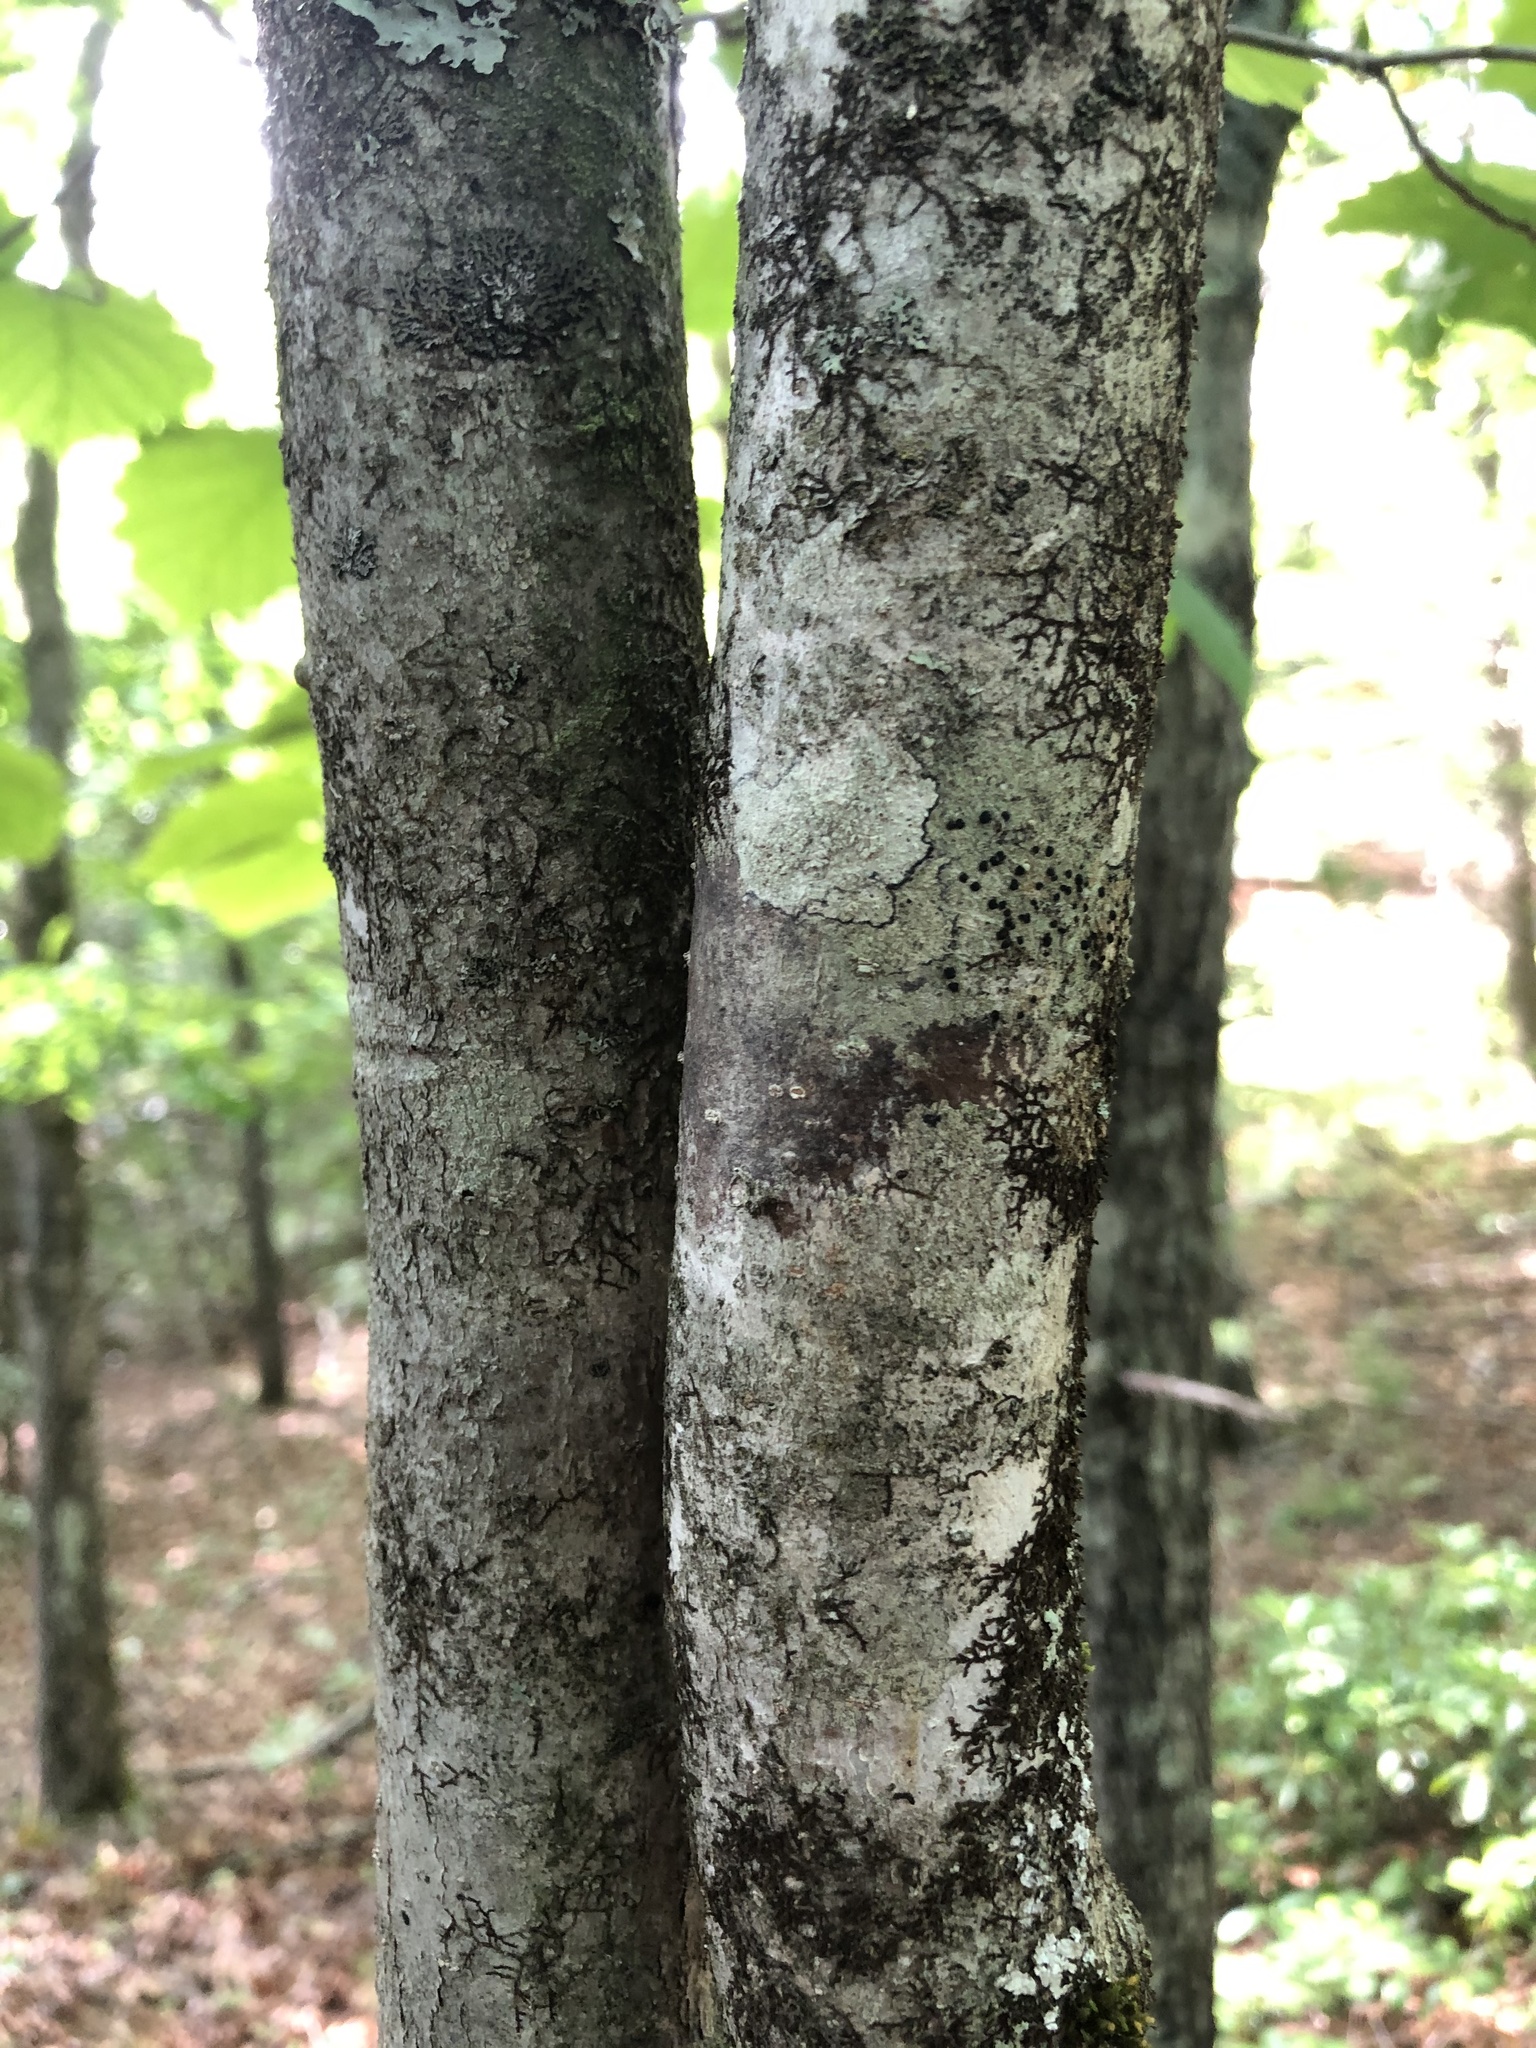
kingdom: Plantae
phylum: Tracheophyta
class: Magnoliopsida
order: Saxifragales
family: Hamamelidaceae
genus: Hamamelis
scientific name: Hamamelis virginiana
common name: Witch-hazel
